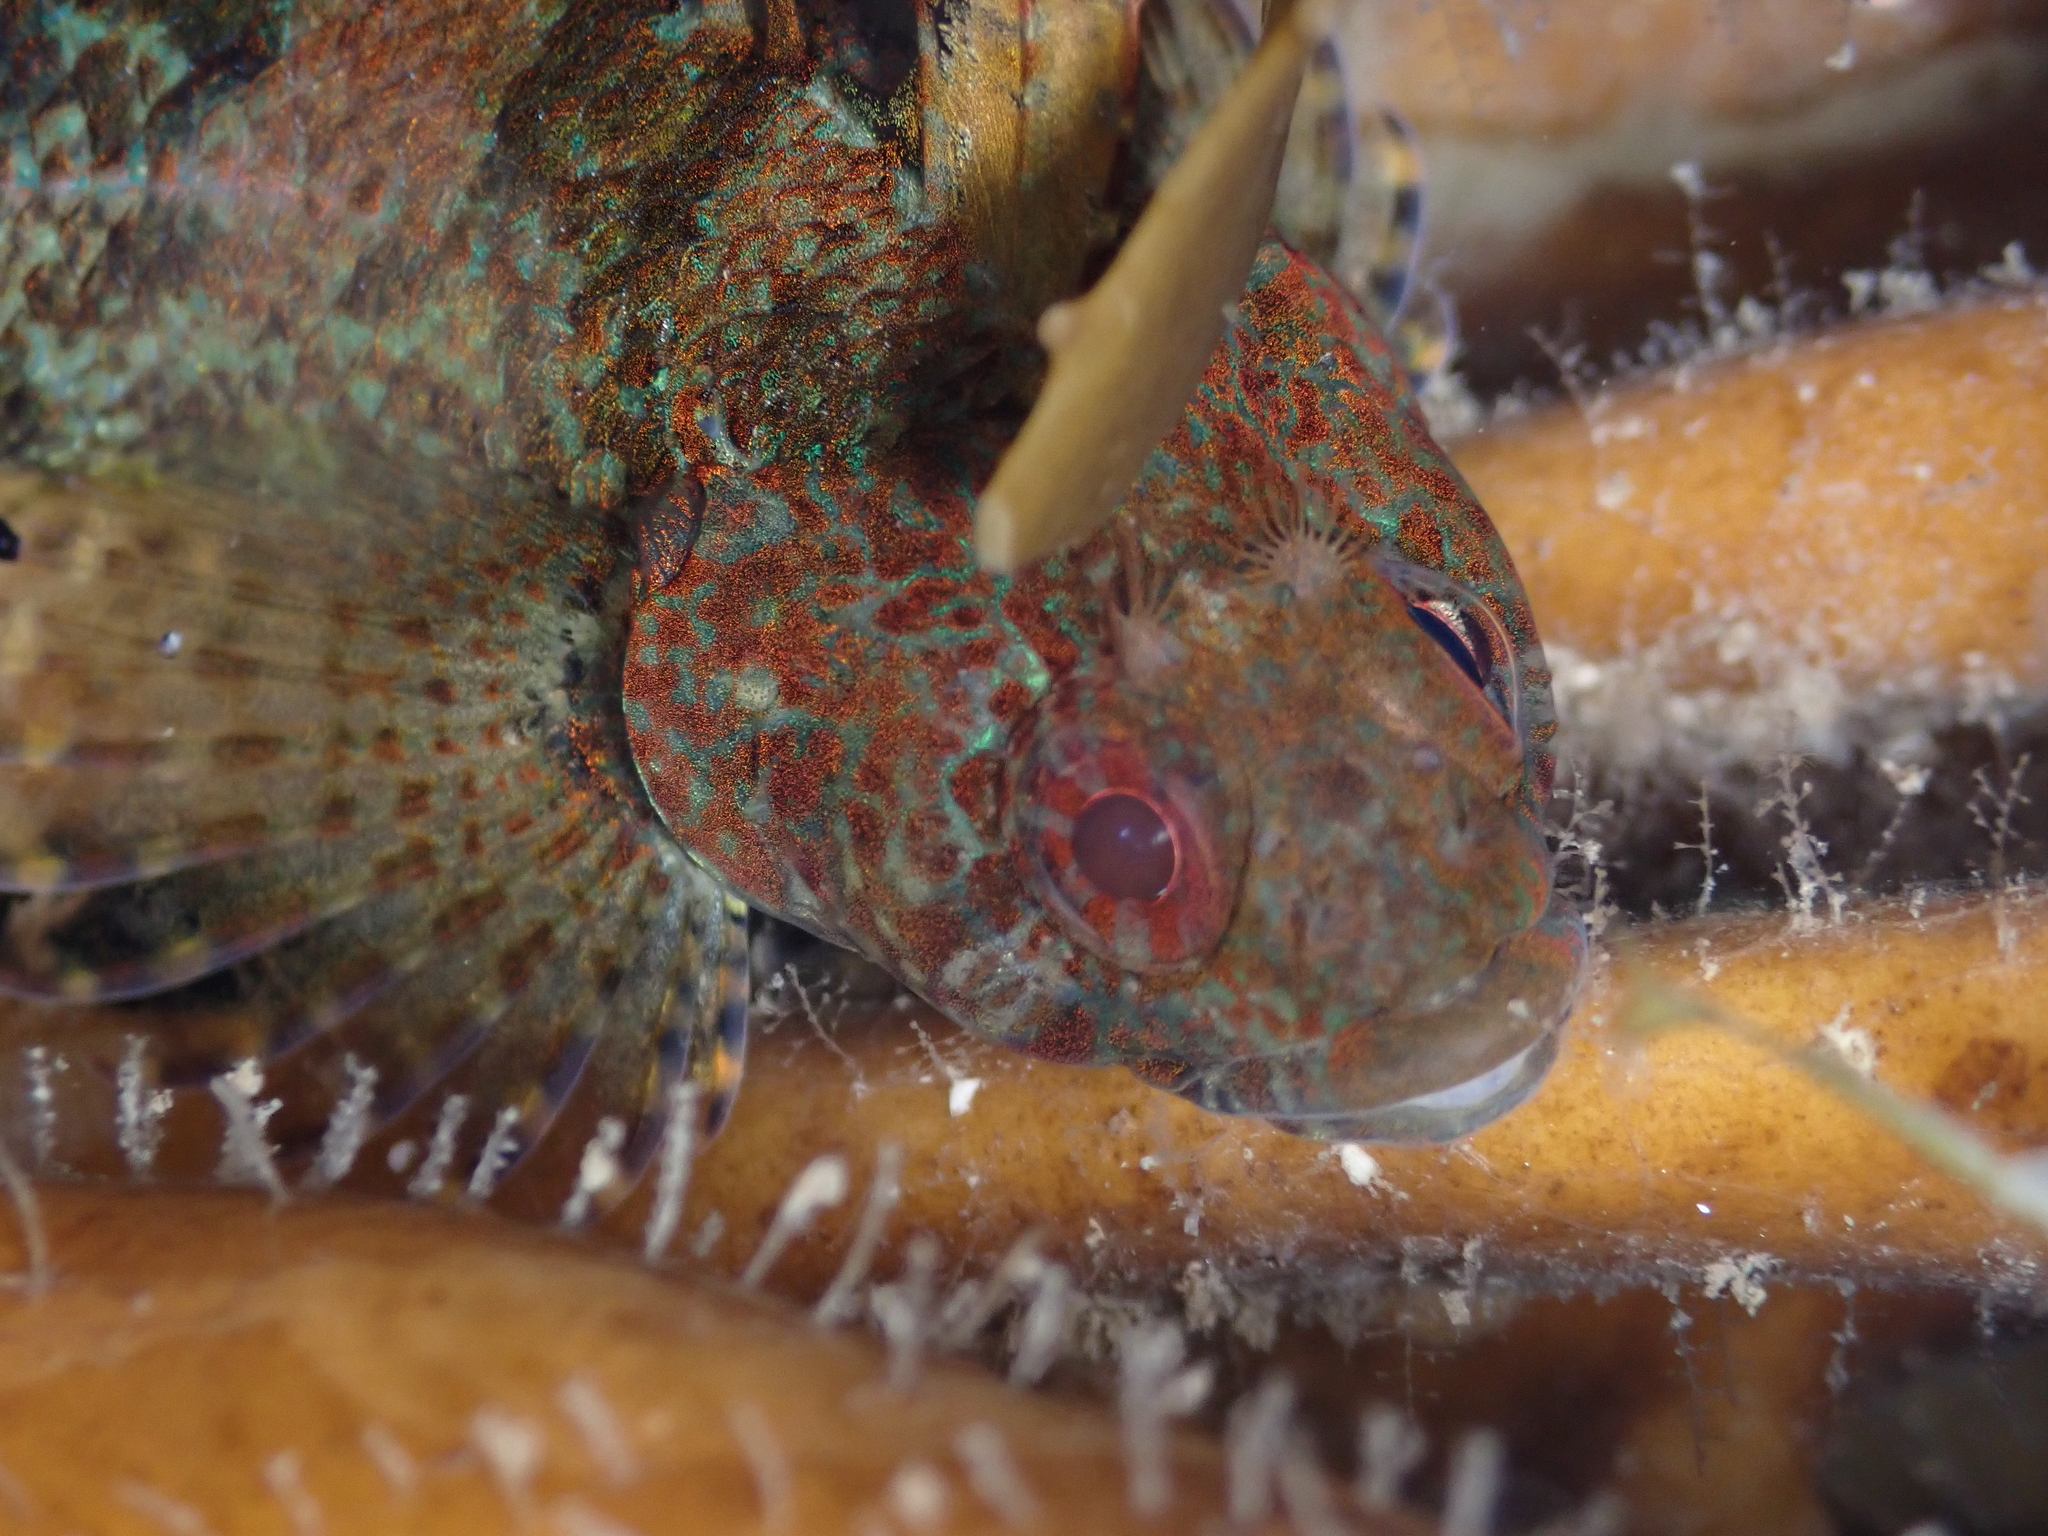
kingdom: Animalia
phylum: Chordata
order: Perciformes
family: Tripterygiidae
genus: Gilloblennius
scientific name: Gilloblennius tripennis
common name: Thripenny
